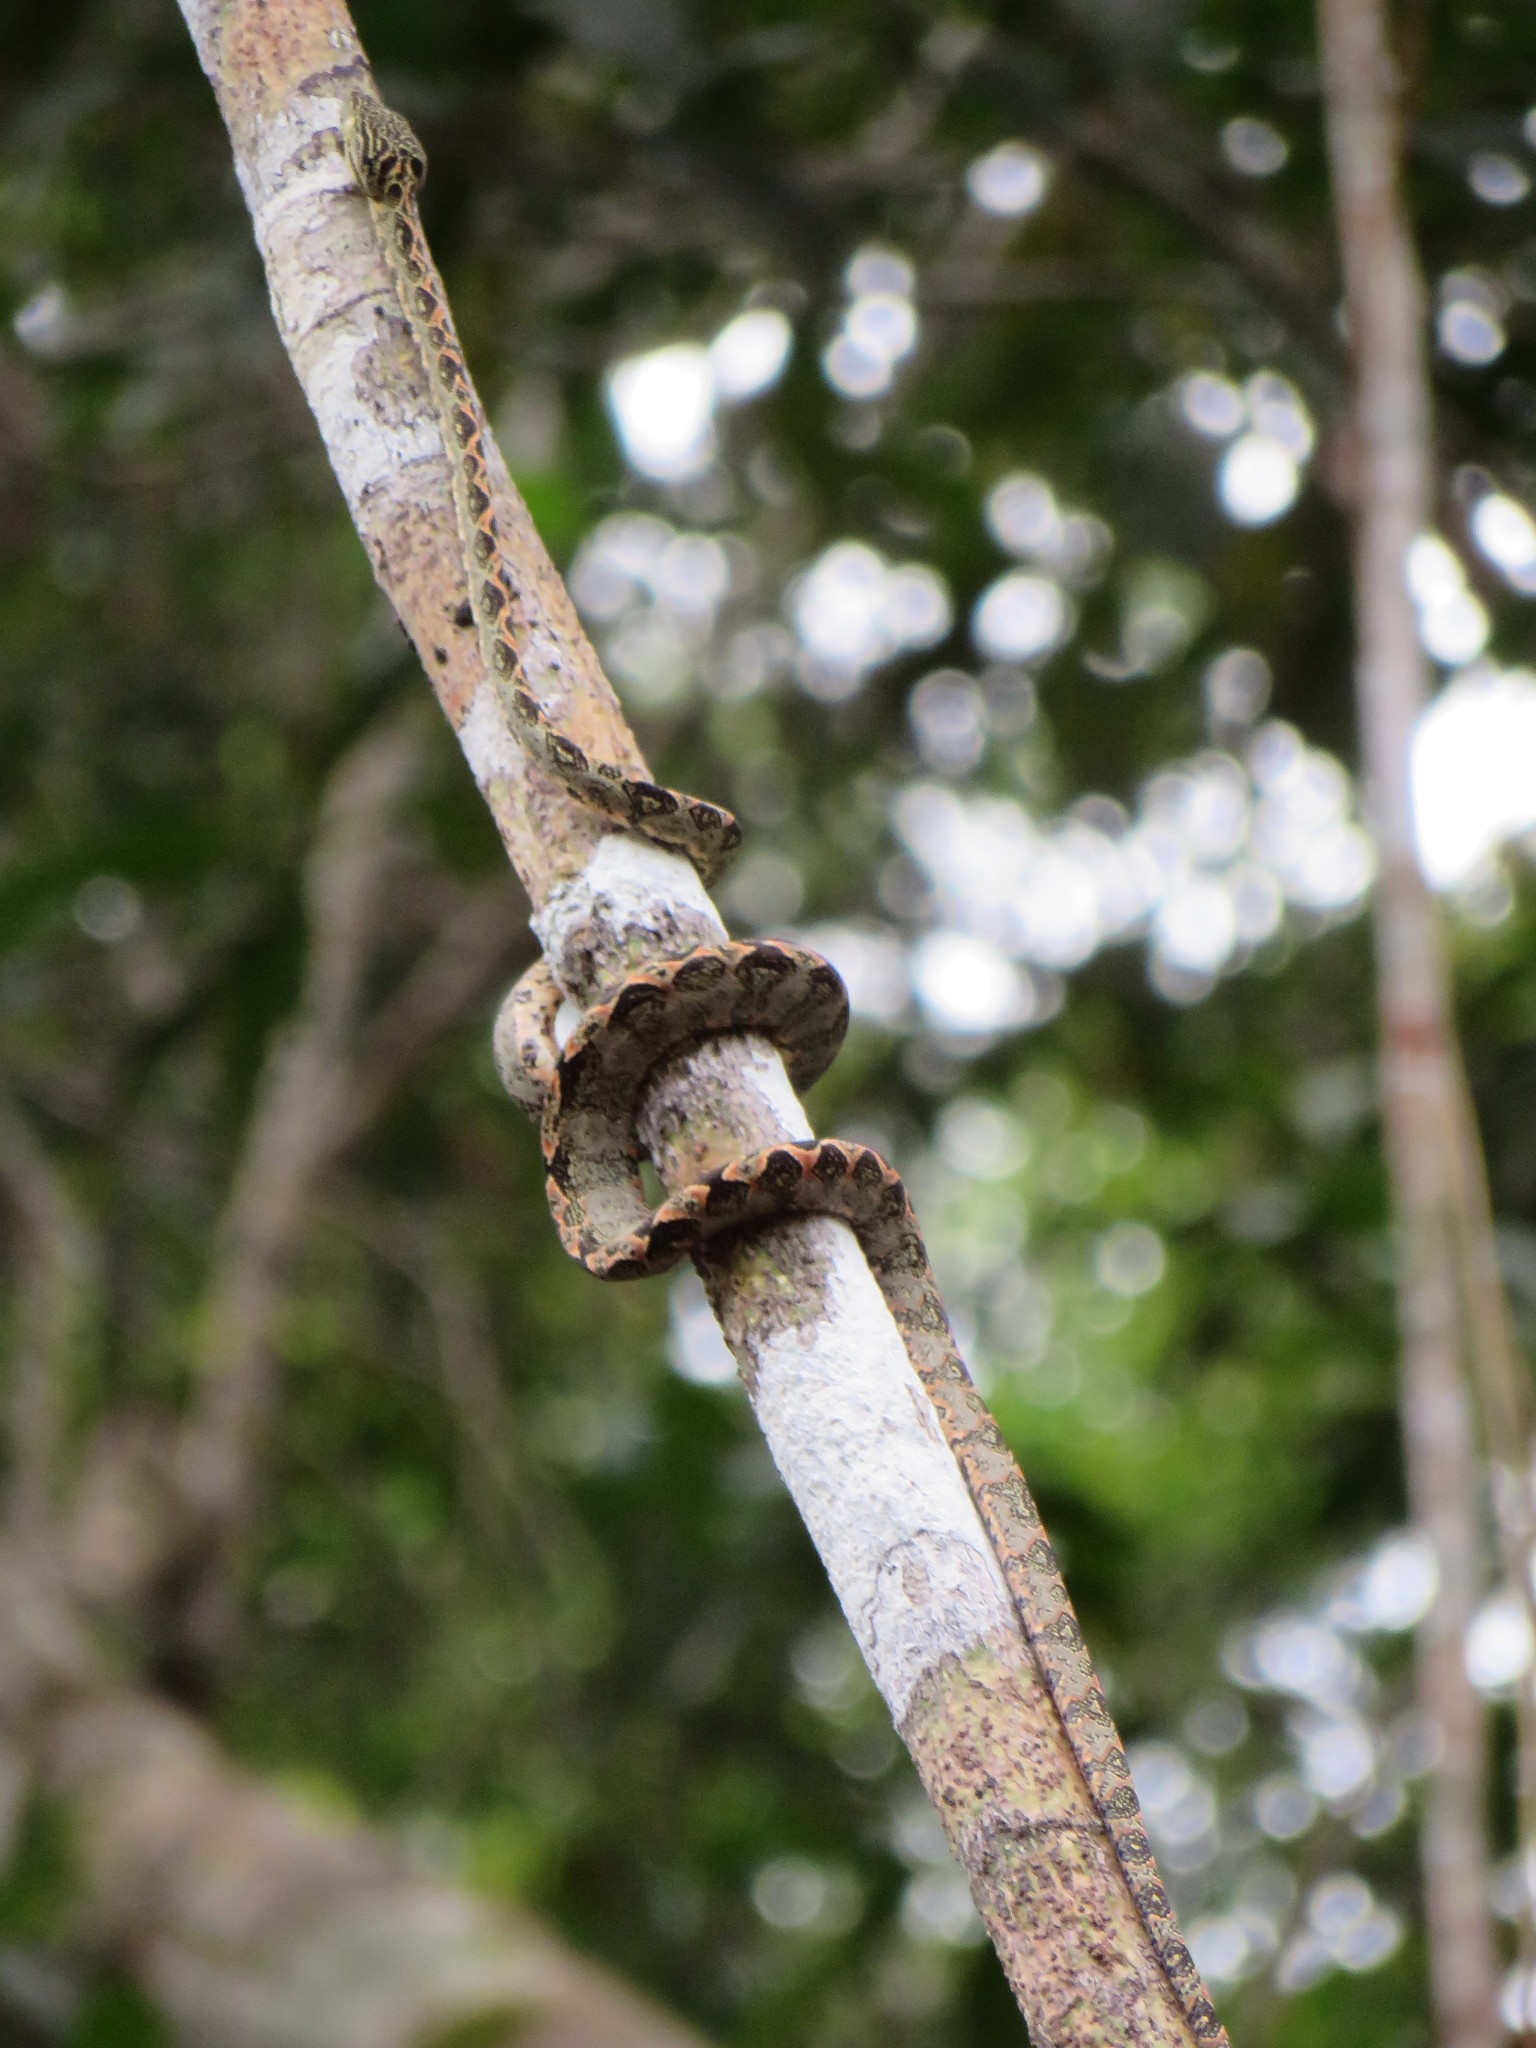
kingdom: Animalia
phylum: Chordata
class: Squamata
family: Boidae
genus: Corallus
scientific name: Corallus hortulana
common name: Garden tree boa
